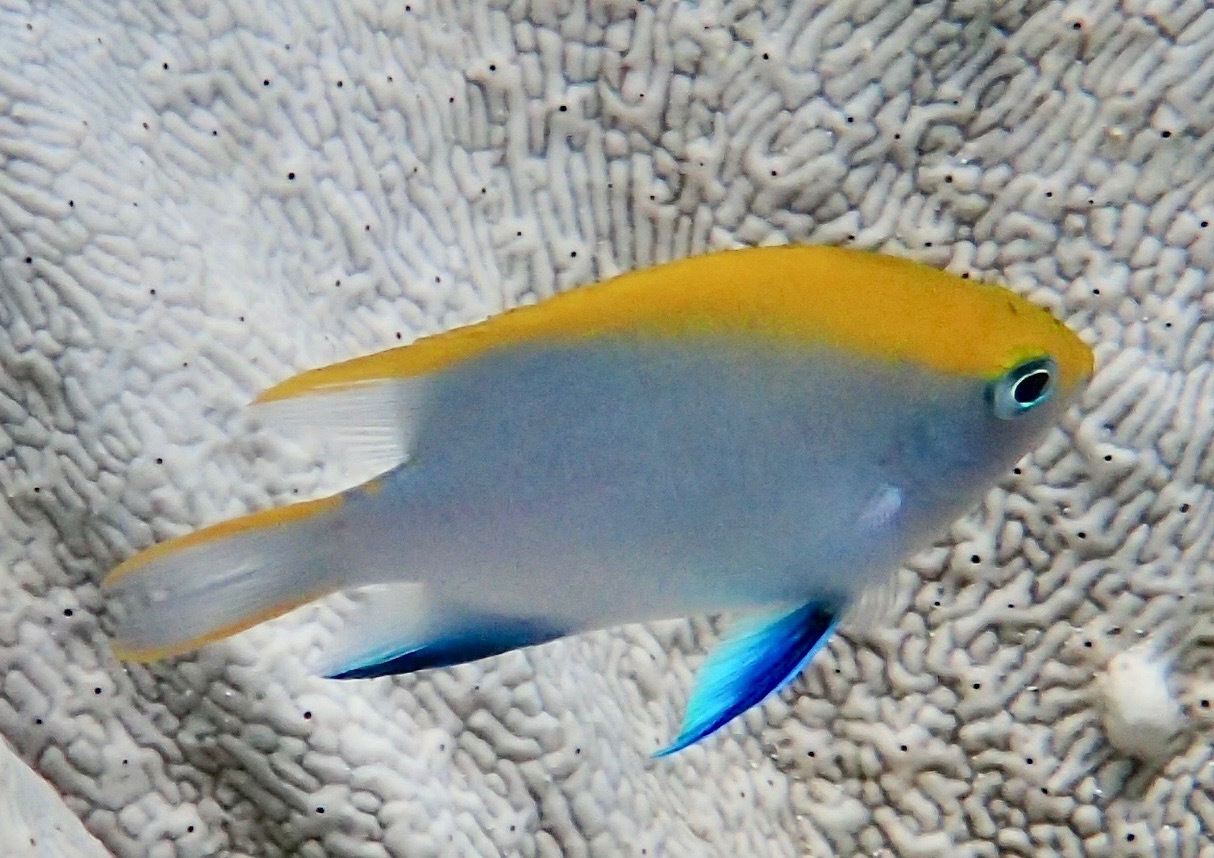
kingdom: Animalia
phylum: Chordata
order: Perciformes
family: Pomacentridae
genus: Neoglyphidodon
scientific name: Neoglyphidodon melas
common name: Black damsel
